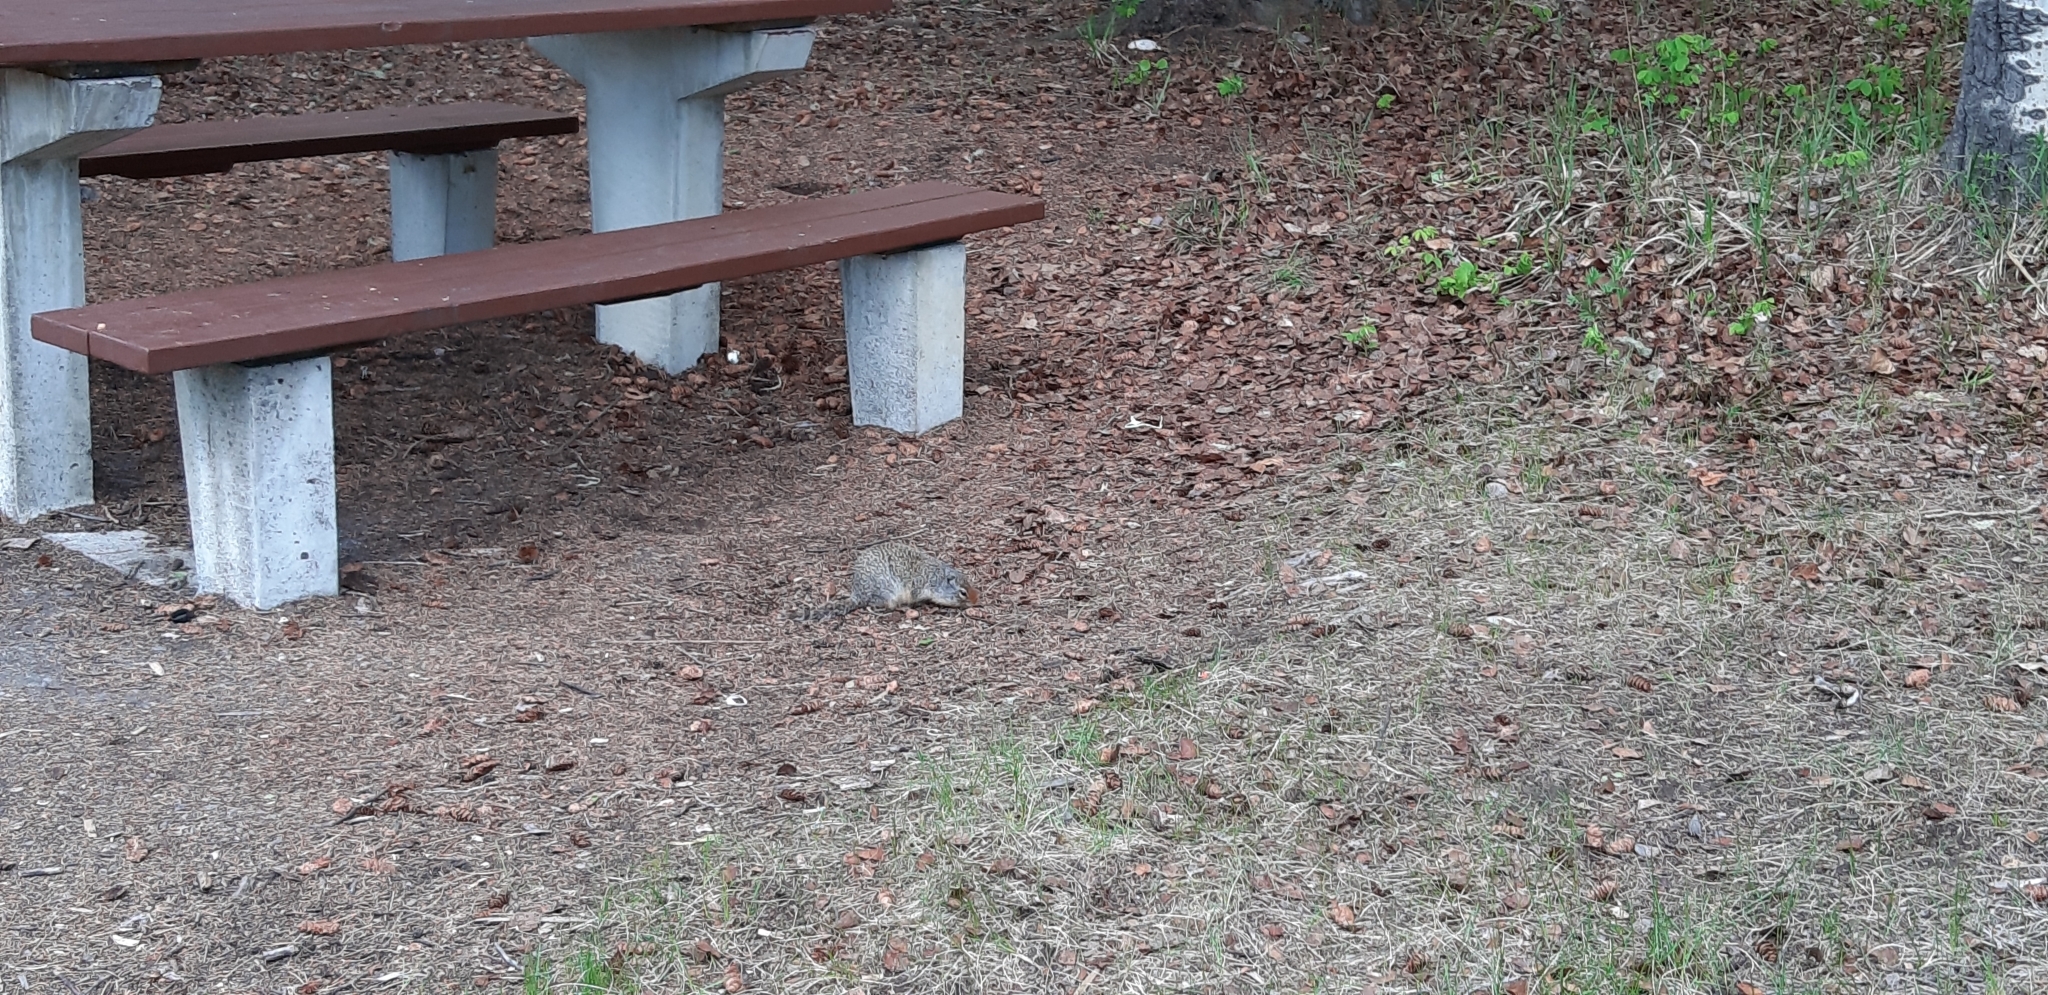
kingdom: Animalia
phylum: Chordata
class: Mammalia
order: Rodentia
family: Sciuridae
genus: Urocitellus
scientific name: Urocitellus columbianus
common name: Columbian ground squirrel
